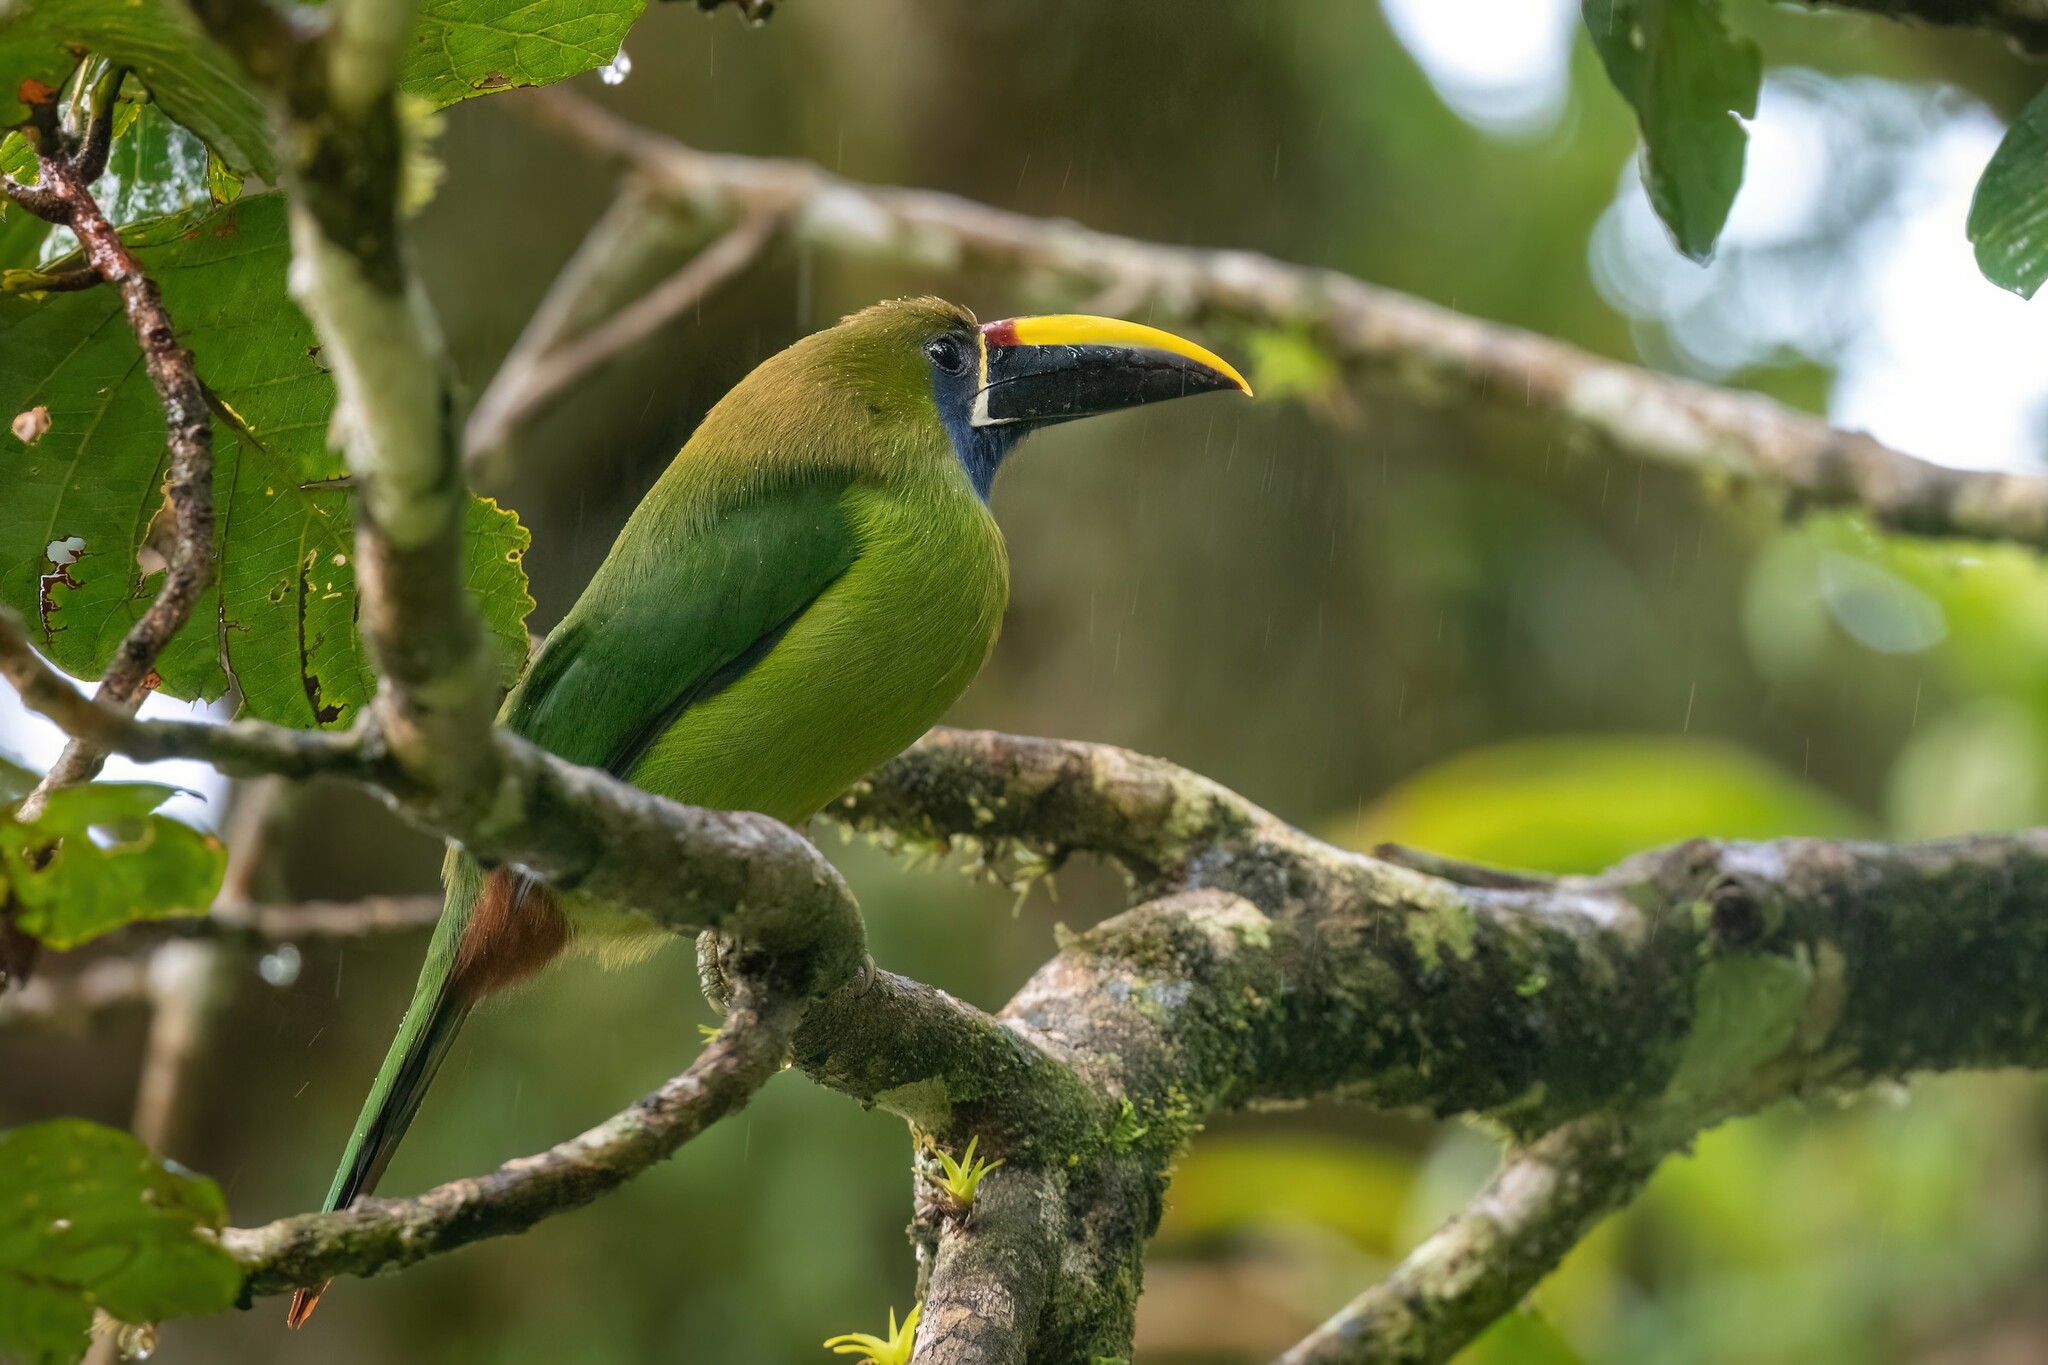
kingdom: Animalia
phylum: Chordata
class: Aves
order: Piciformes
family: Ramphastidae
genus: Aulacorhynchus
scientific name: Aulacorhynchus prasinus
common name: Emerald toucanet
